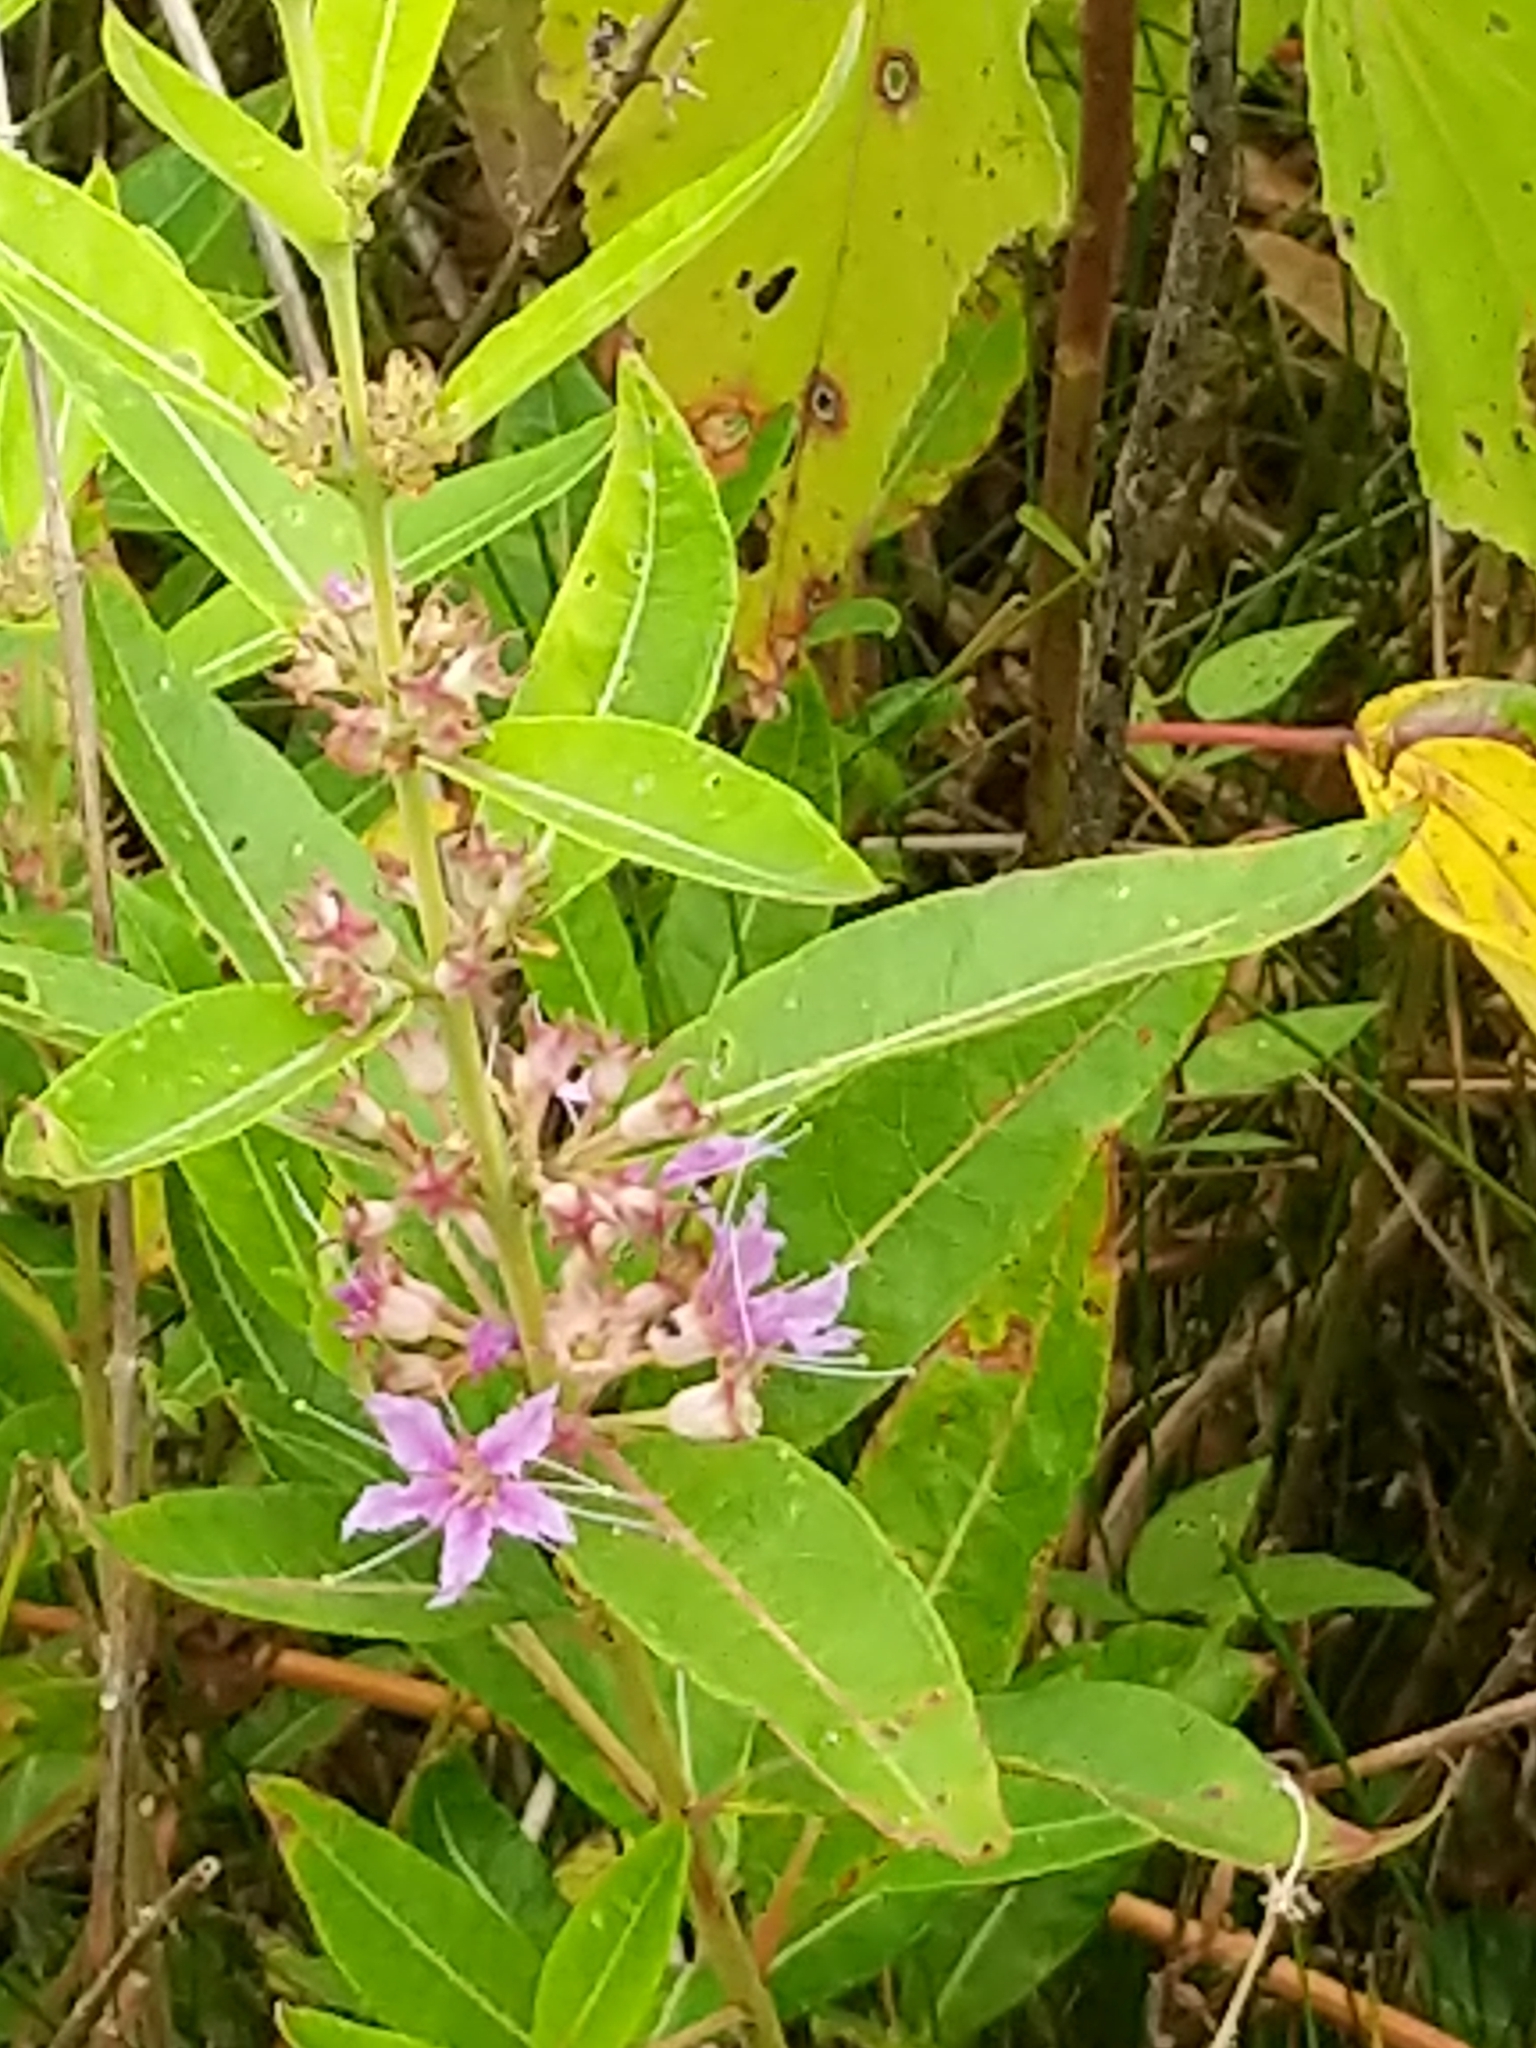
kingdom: Plantae
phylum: Tracheophyta
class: Magnoliopsida
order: Myrtales
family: Lythraceae
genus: Decodon
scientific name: Decodon verticillatus
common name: Hairy swamp loosestrife
